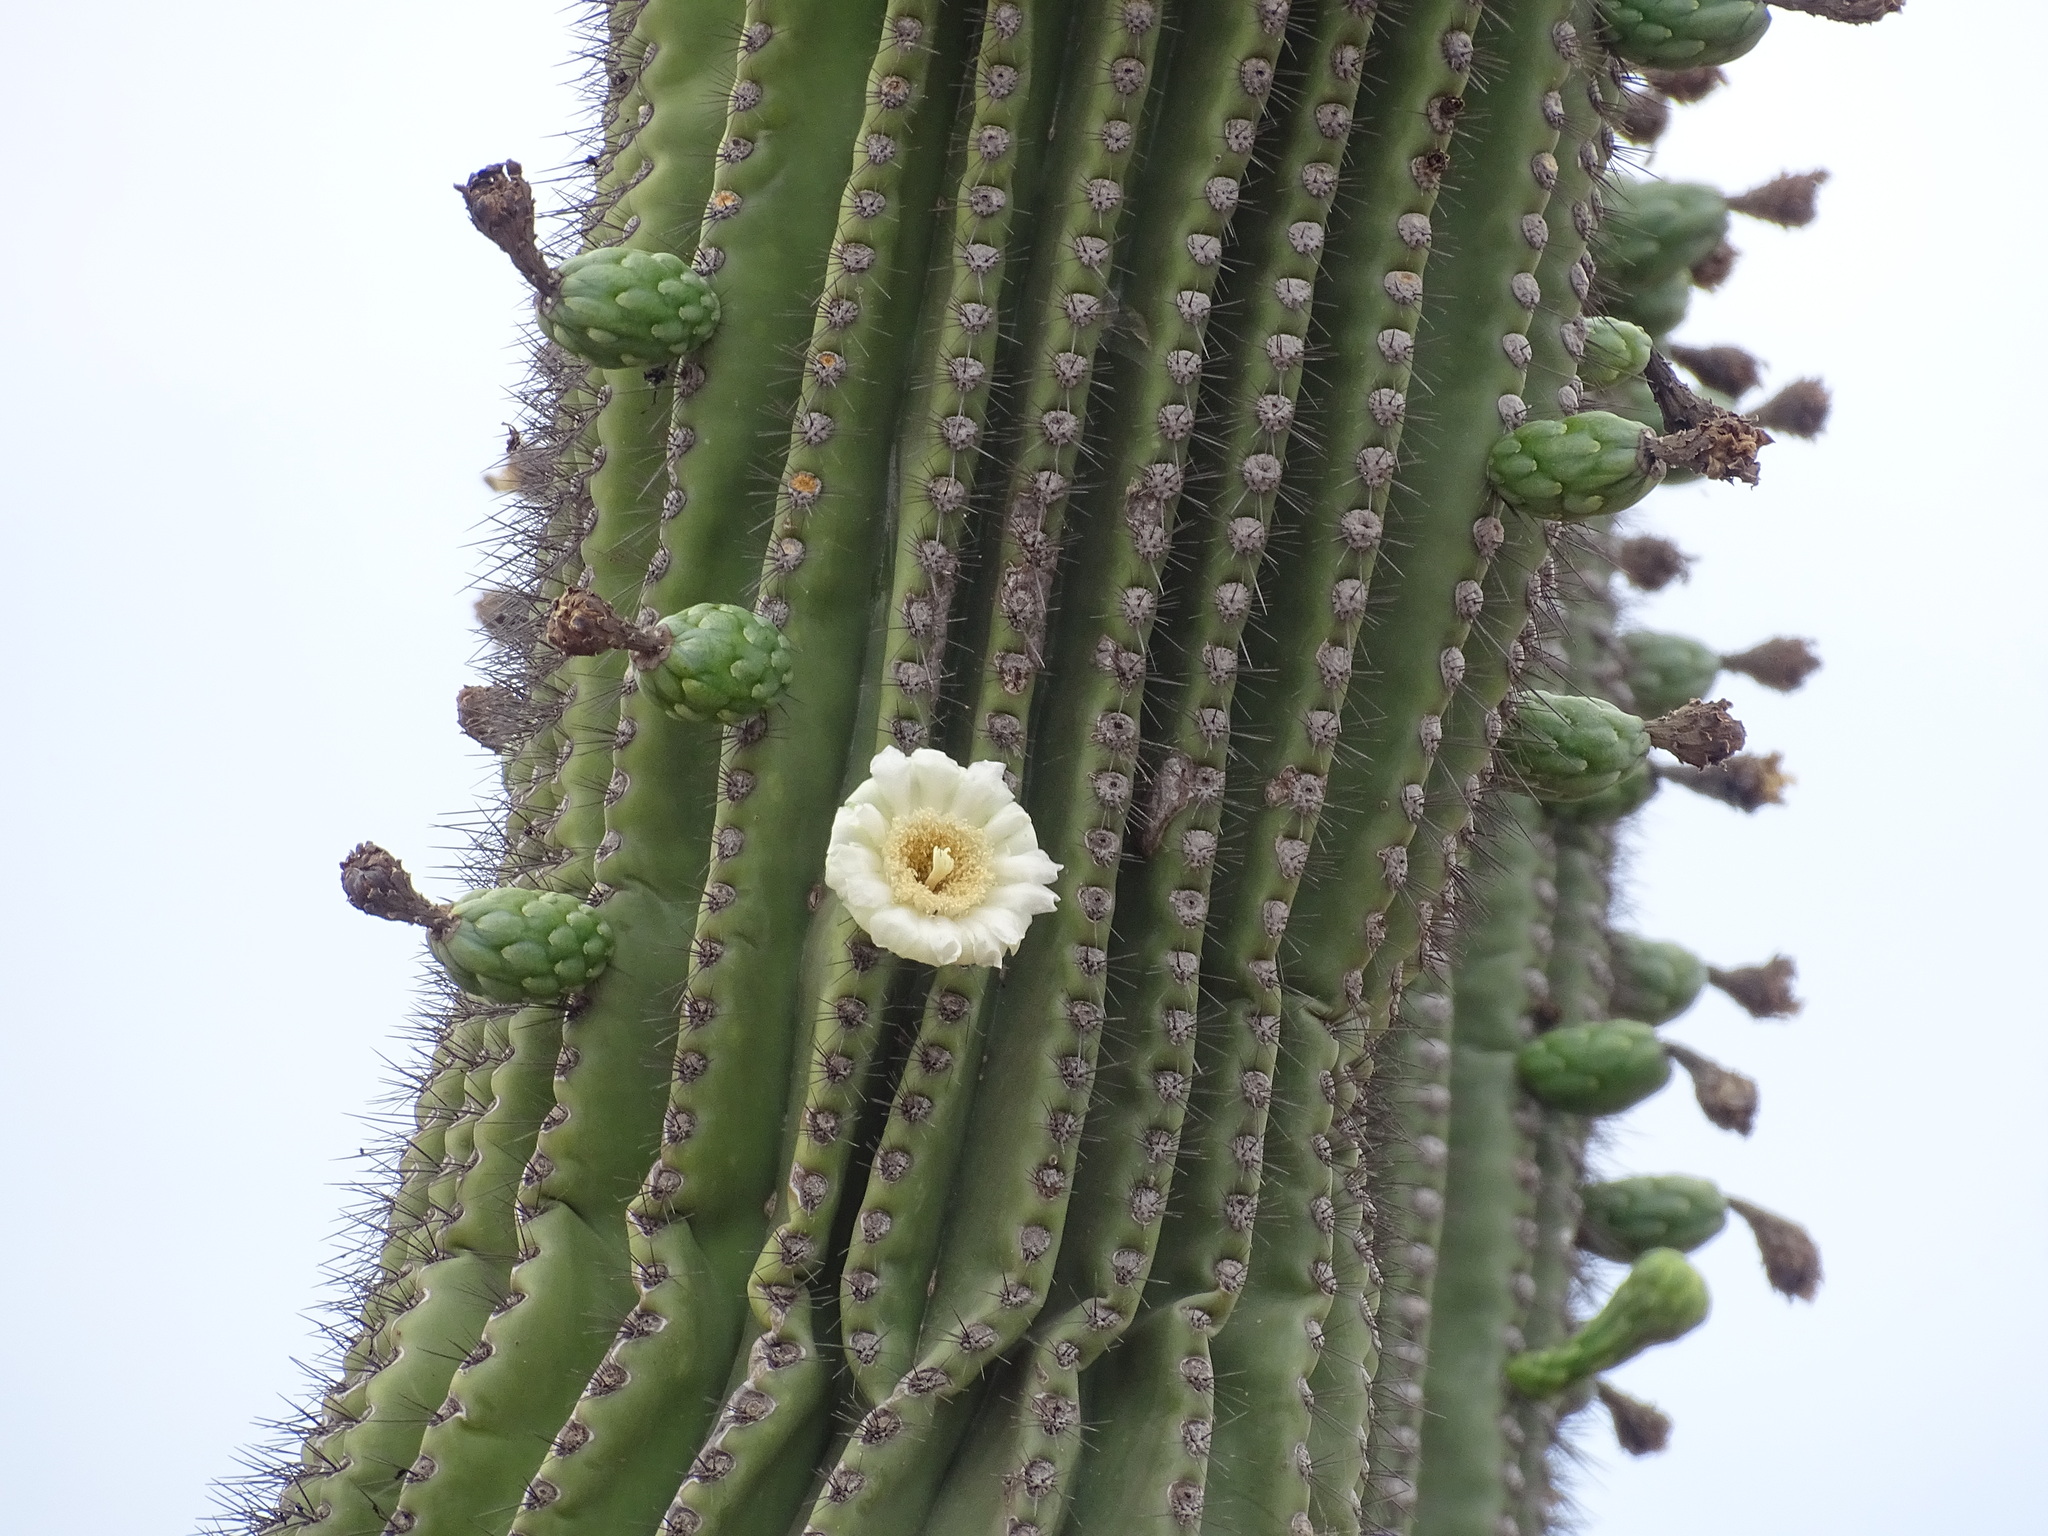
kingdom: Plantae
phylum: Tracheophyta
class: Magnoliopsida
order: Caryophyllales
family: Cactaceae
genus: Carnegiea
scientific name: Carnegiea gigantea
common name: Saguaro
